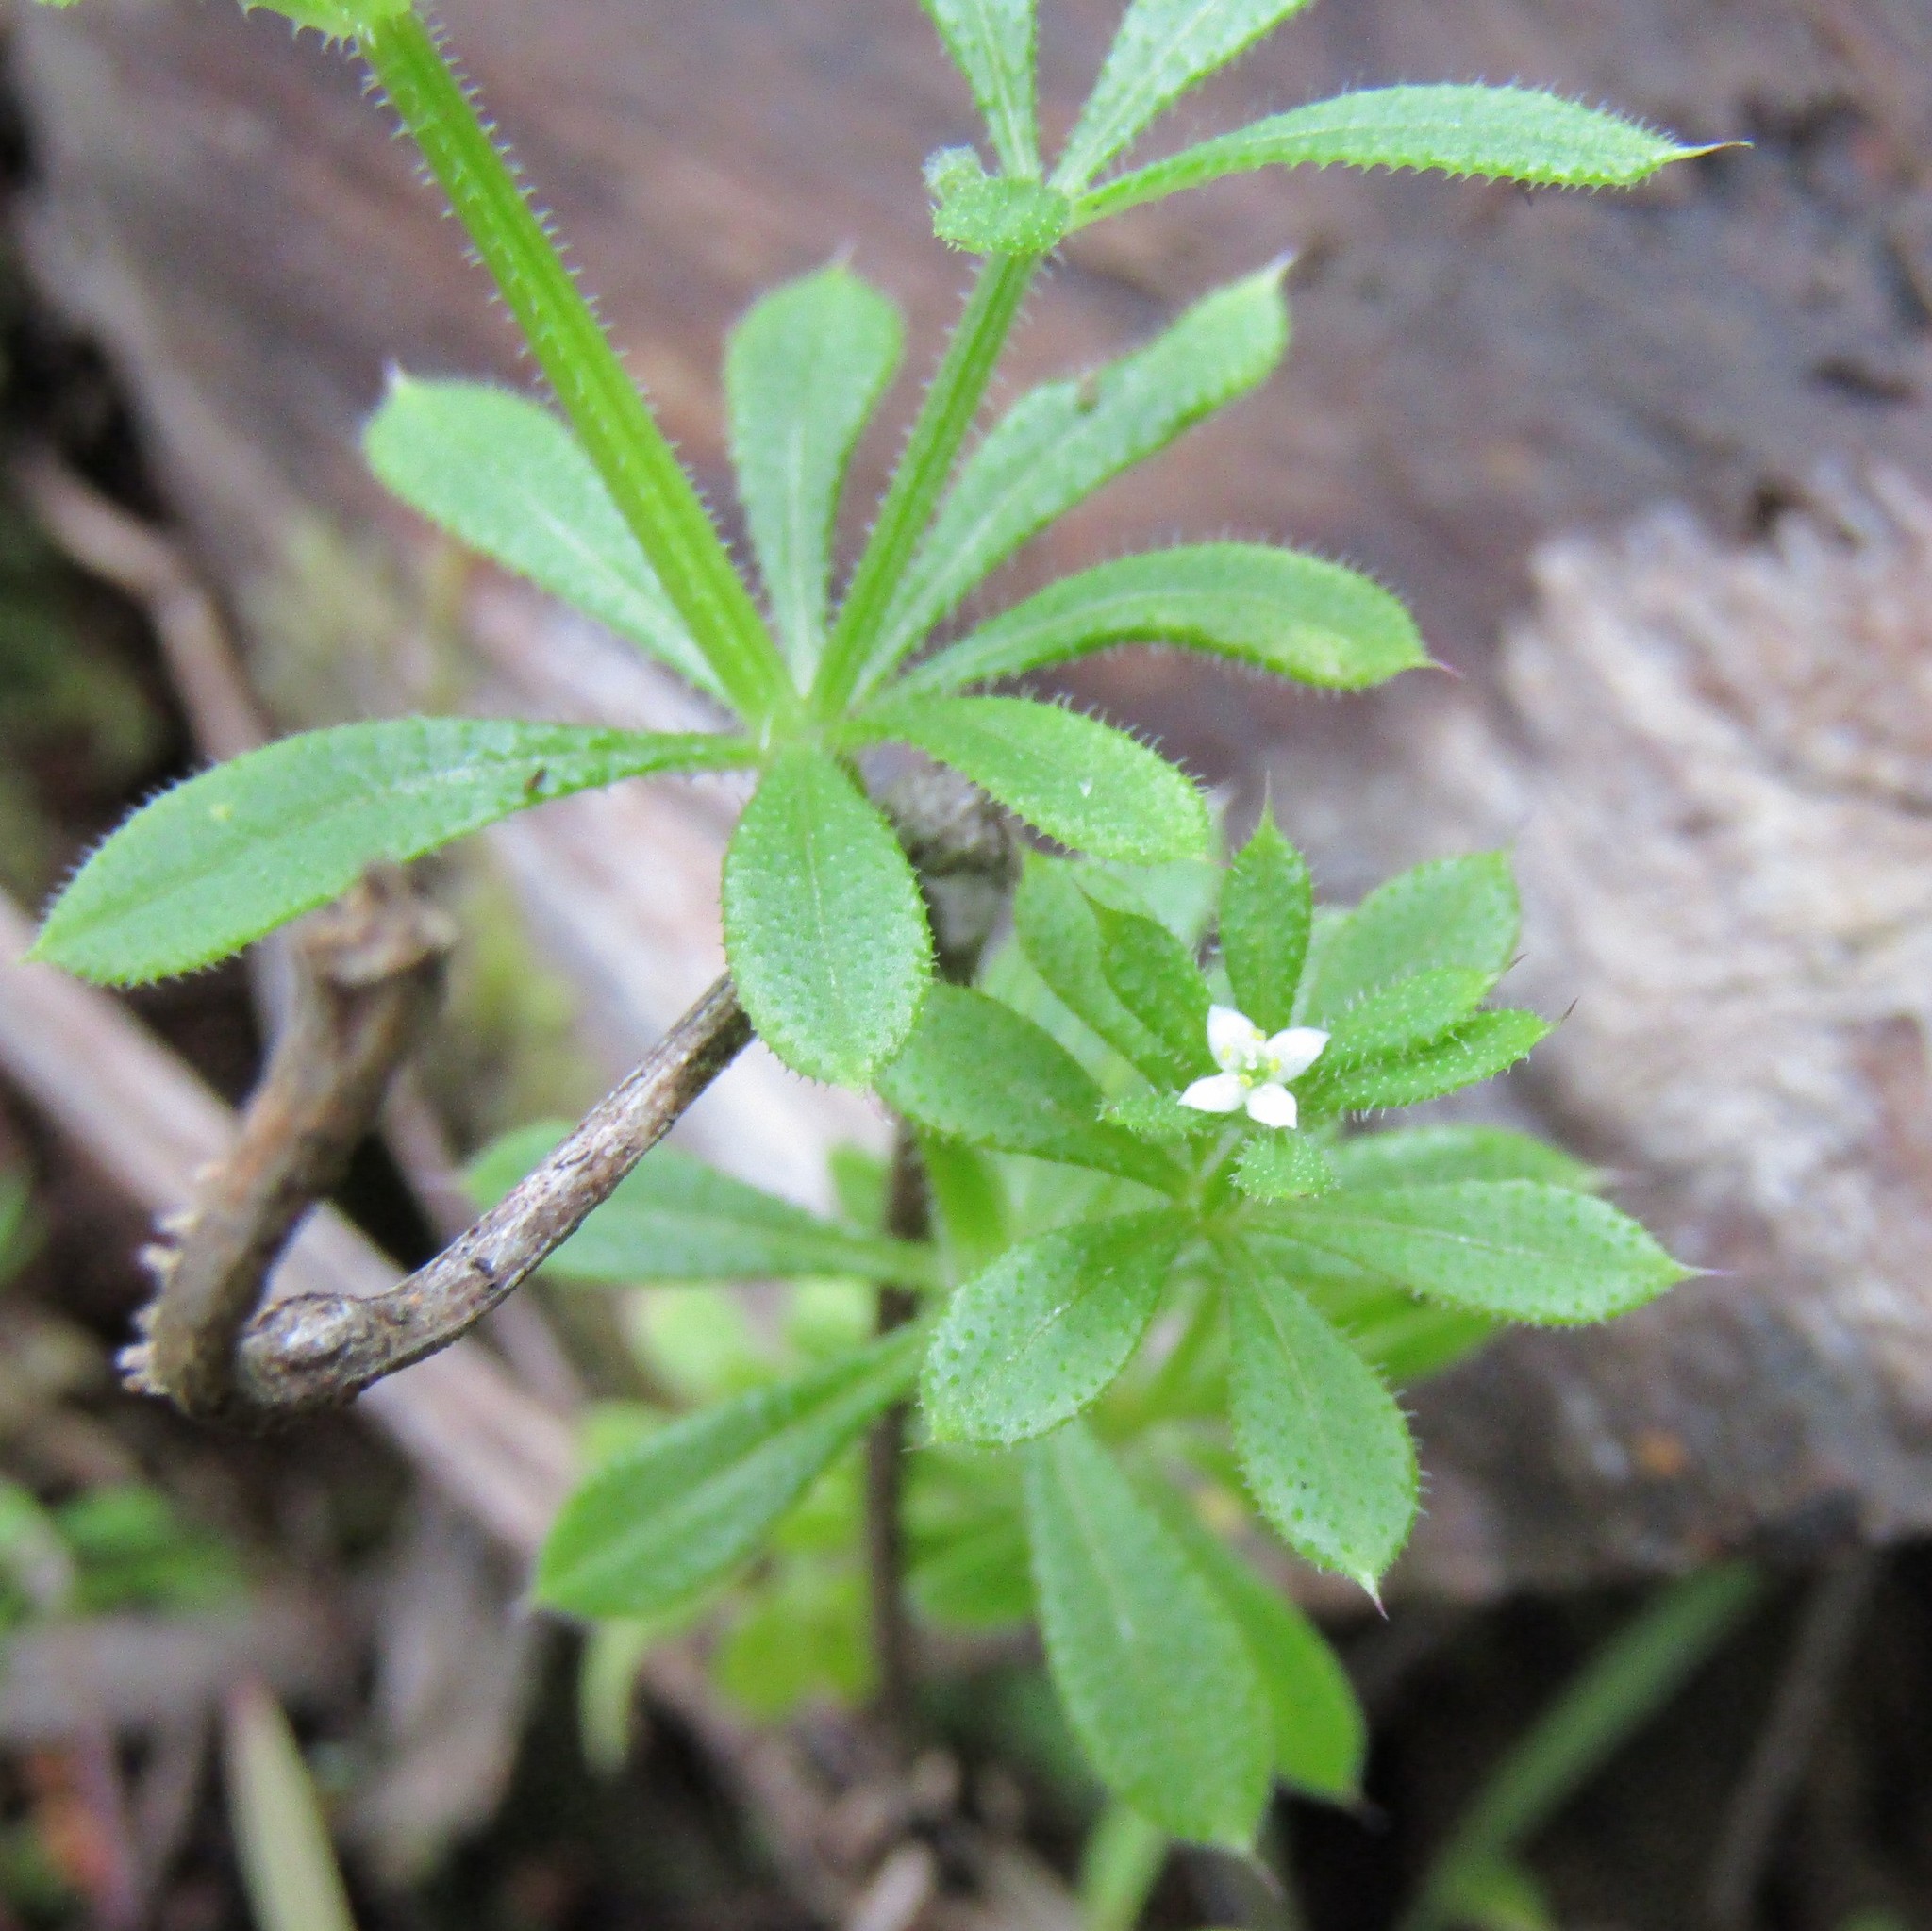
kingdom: Plantae
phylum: Tracheophyta
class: Magnoliopsida
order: Gentianales
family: Rubiaceae
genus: Galium
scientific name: Galium aparine
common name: Cleavers
